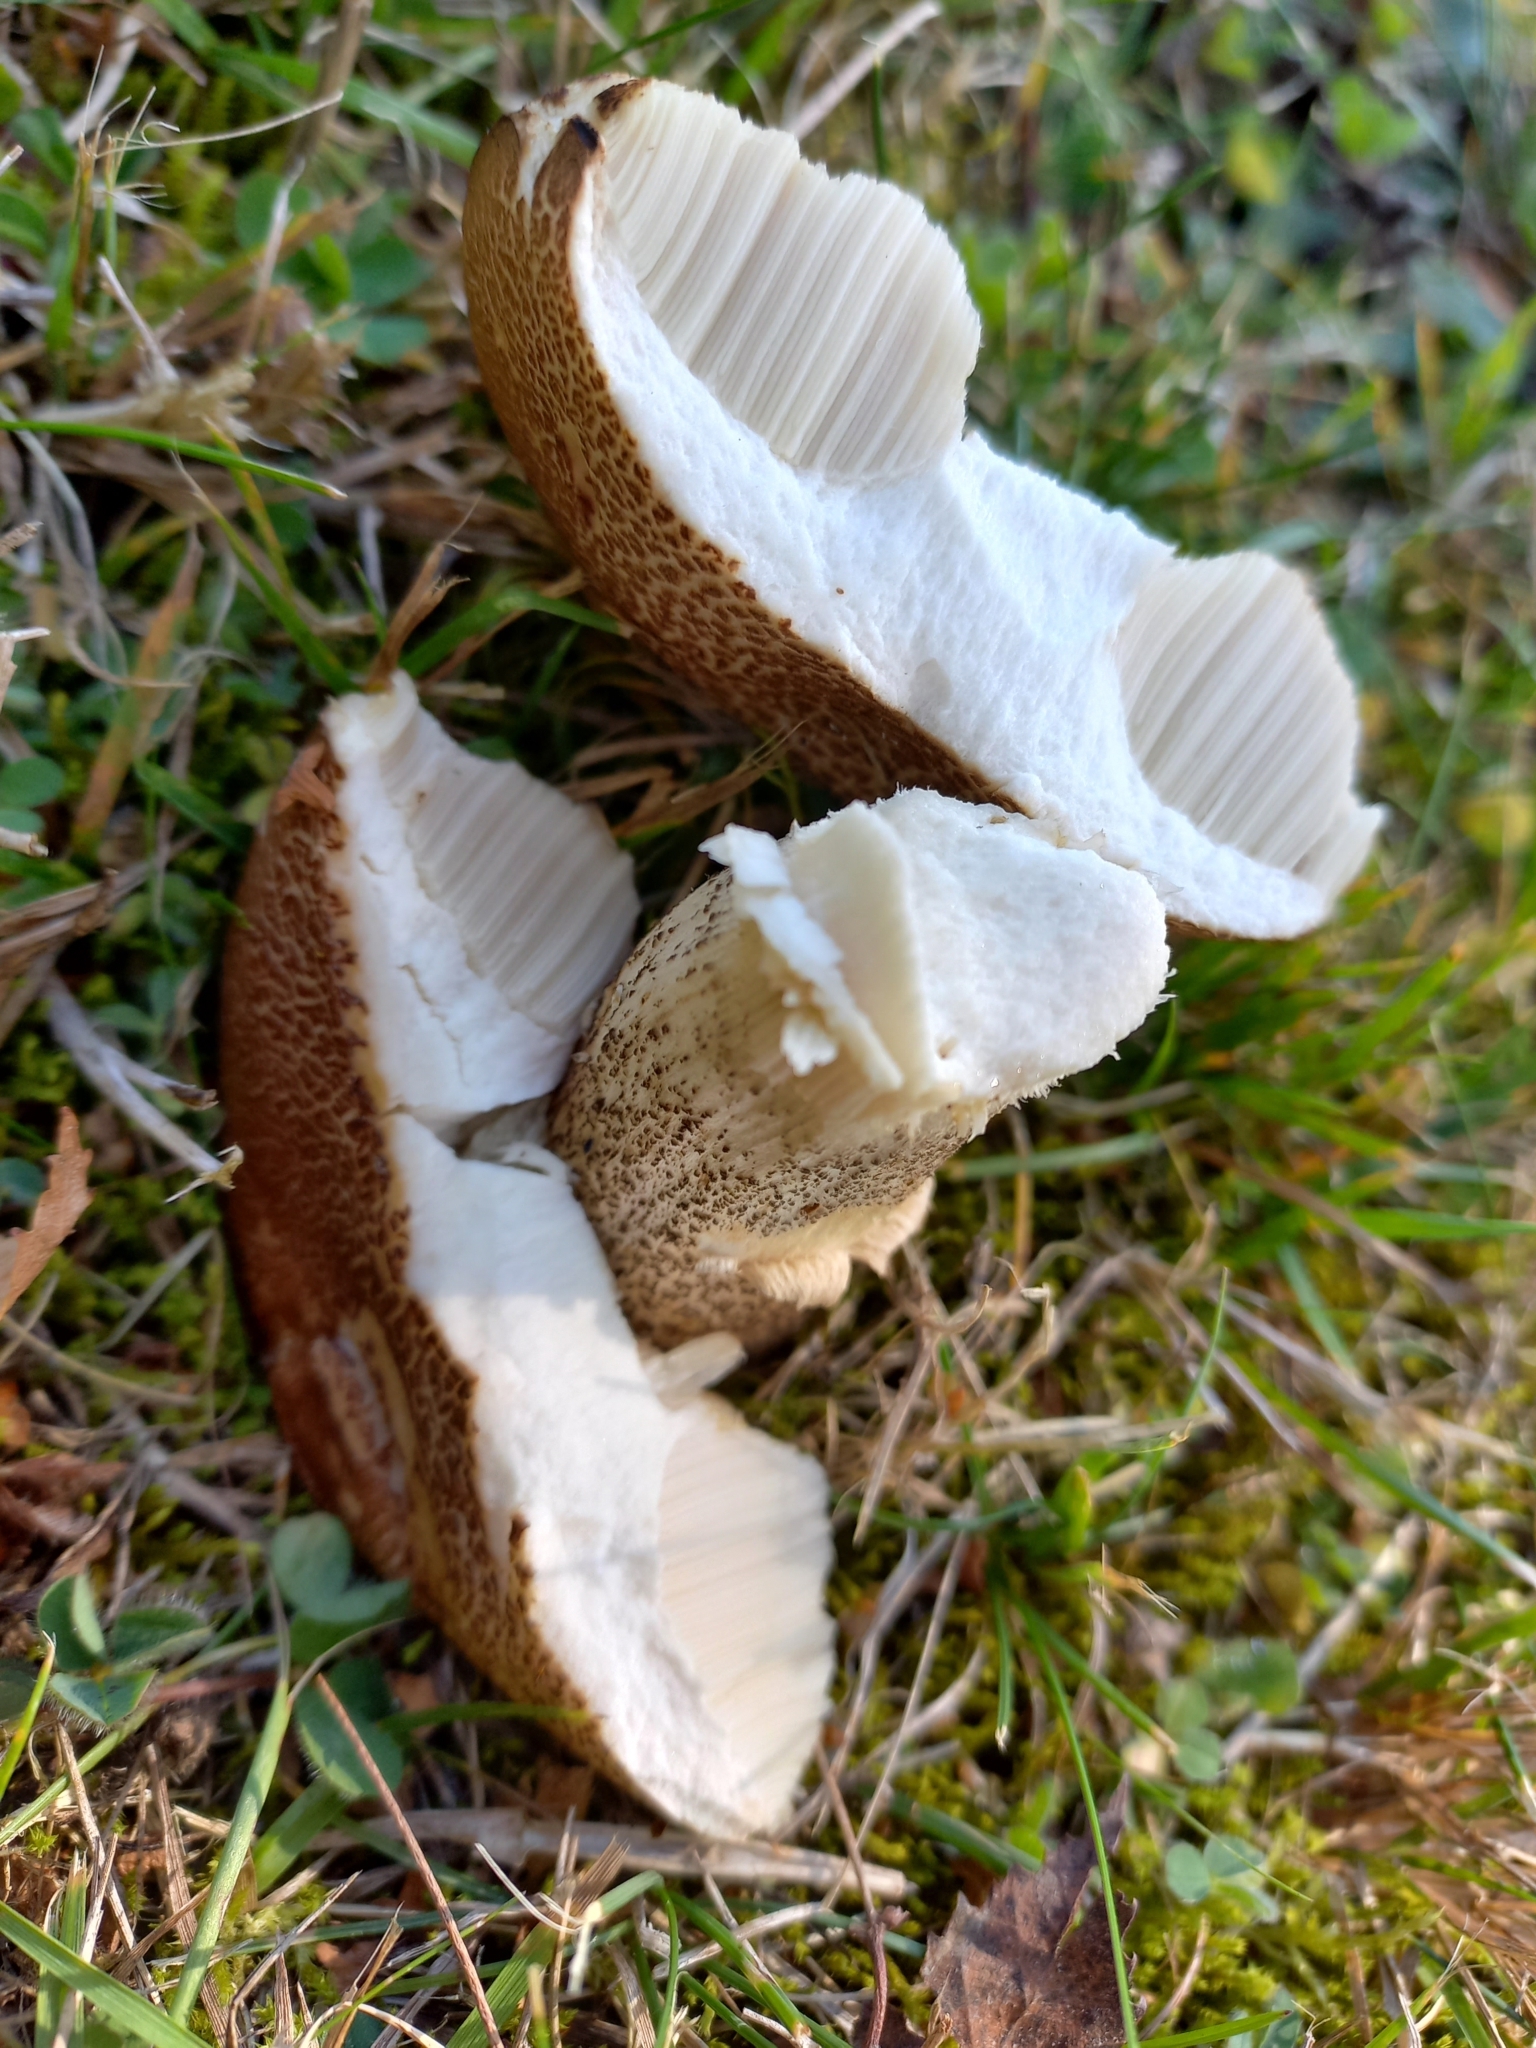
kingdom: Fungi
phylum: Basidiomycota
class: Agaricomycetes
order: Boletales
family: Boletaceae
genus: Leccinum
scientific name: Leccinum scabrum
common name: Blushing bolete
